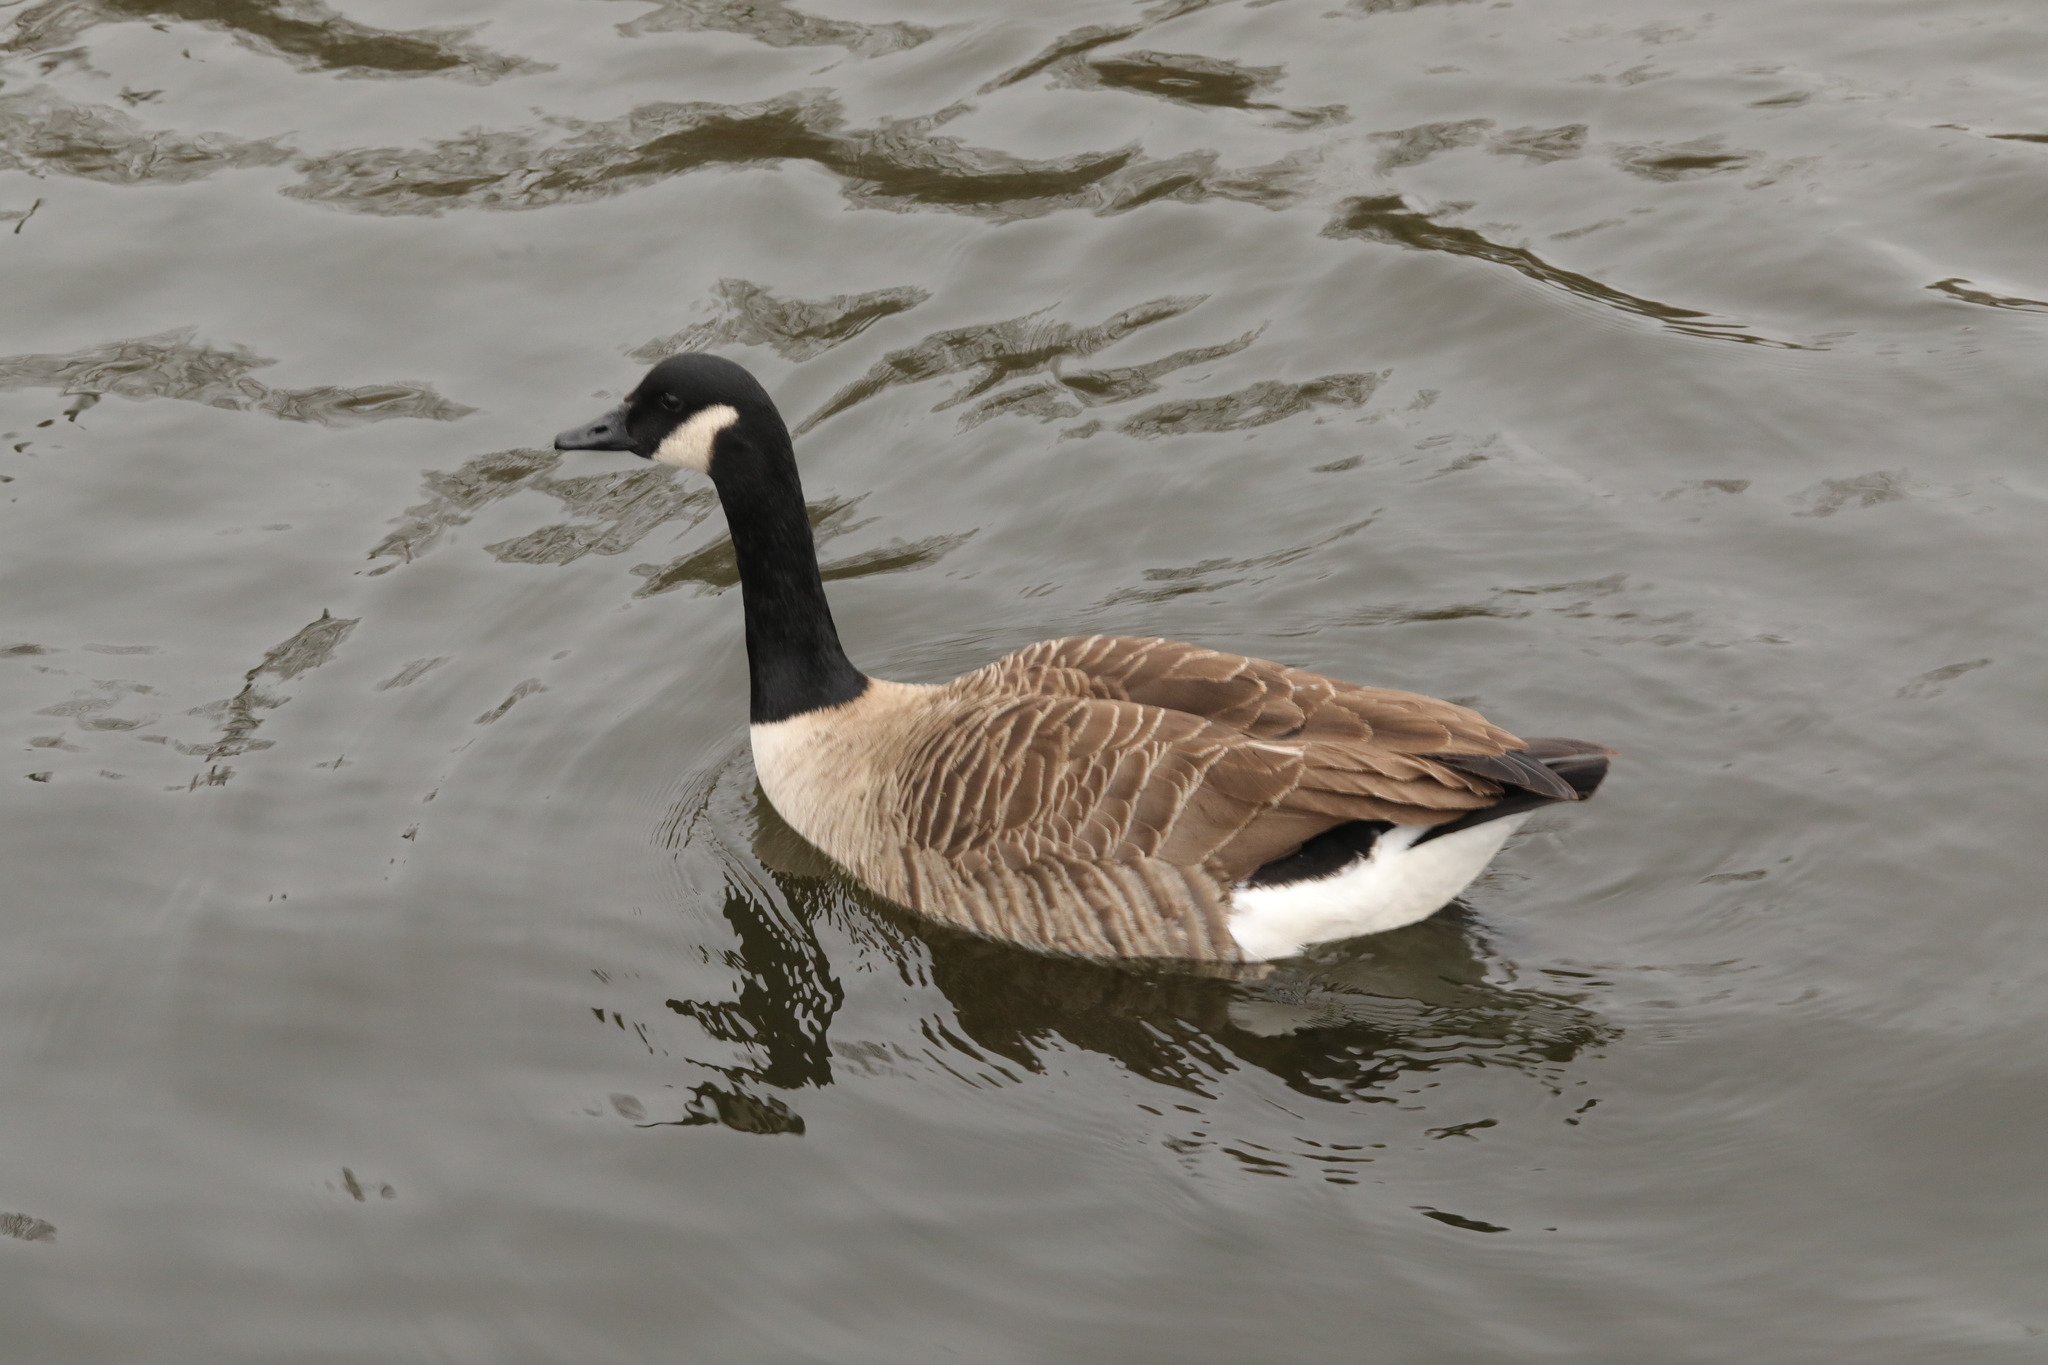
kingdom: Animalia
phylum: Chordata
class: Aves
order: Anseriformes
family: Anatidae
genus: Branta
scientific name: Branta canadensis
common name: Canada goose
